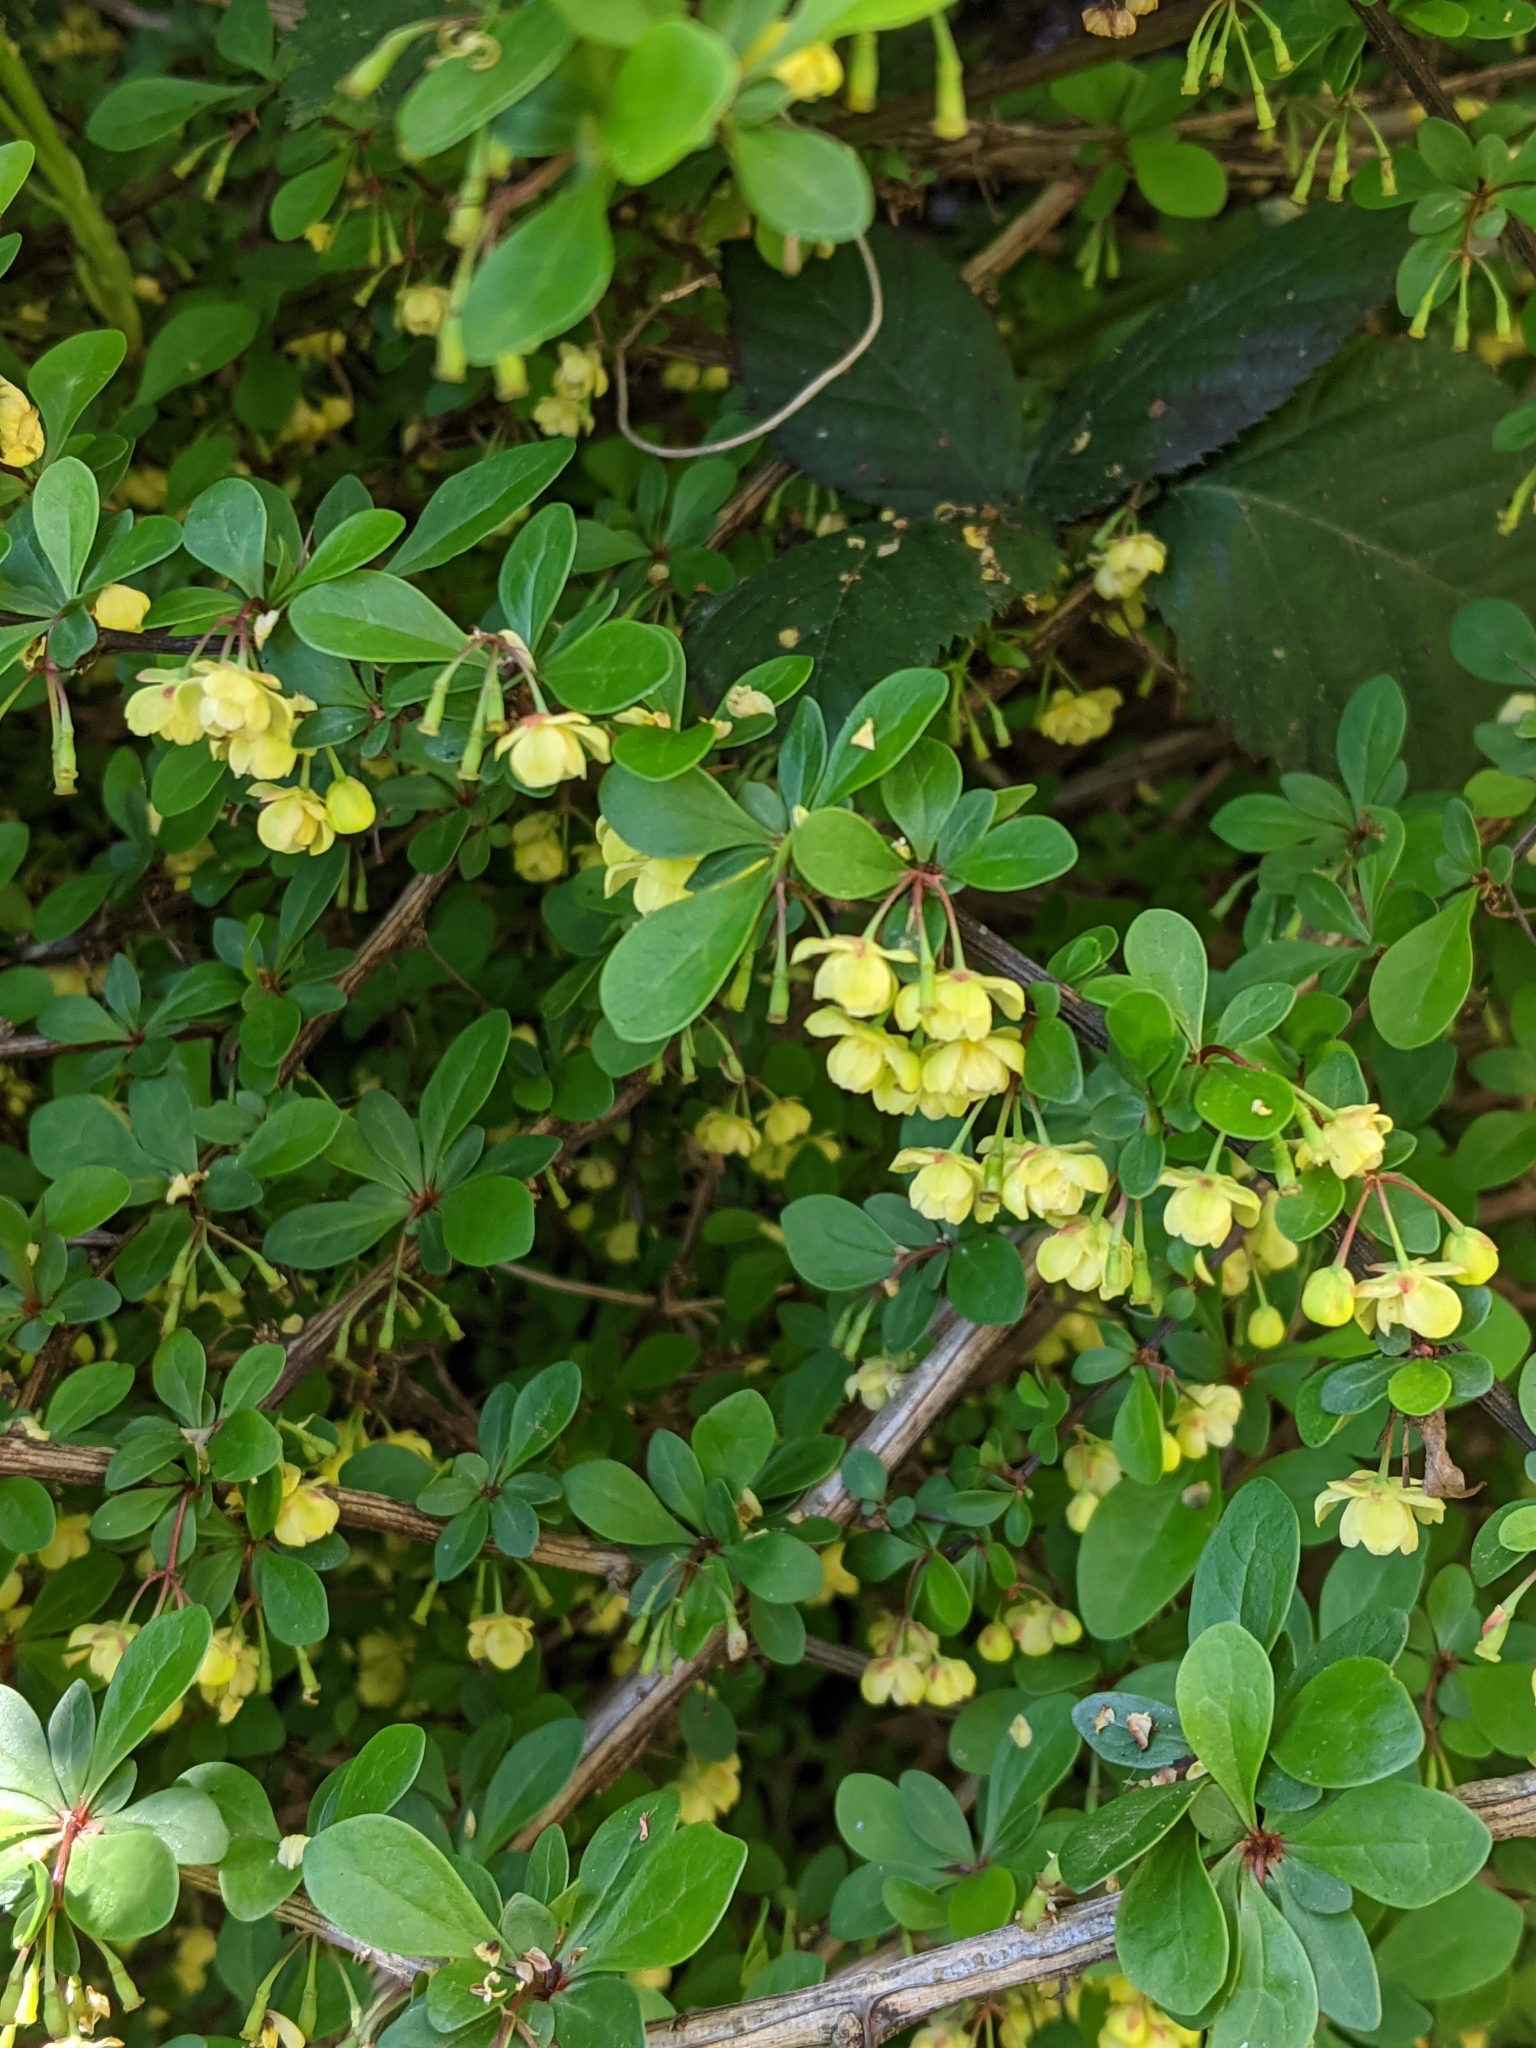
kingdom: Plantae
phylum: Tracheophyta
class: Magnoliopsida
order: Ranunculales
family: Berberidaceae
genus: Berberis
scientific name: Berberis thunbergii
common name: Japanese barberry
